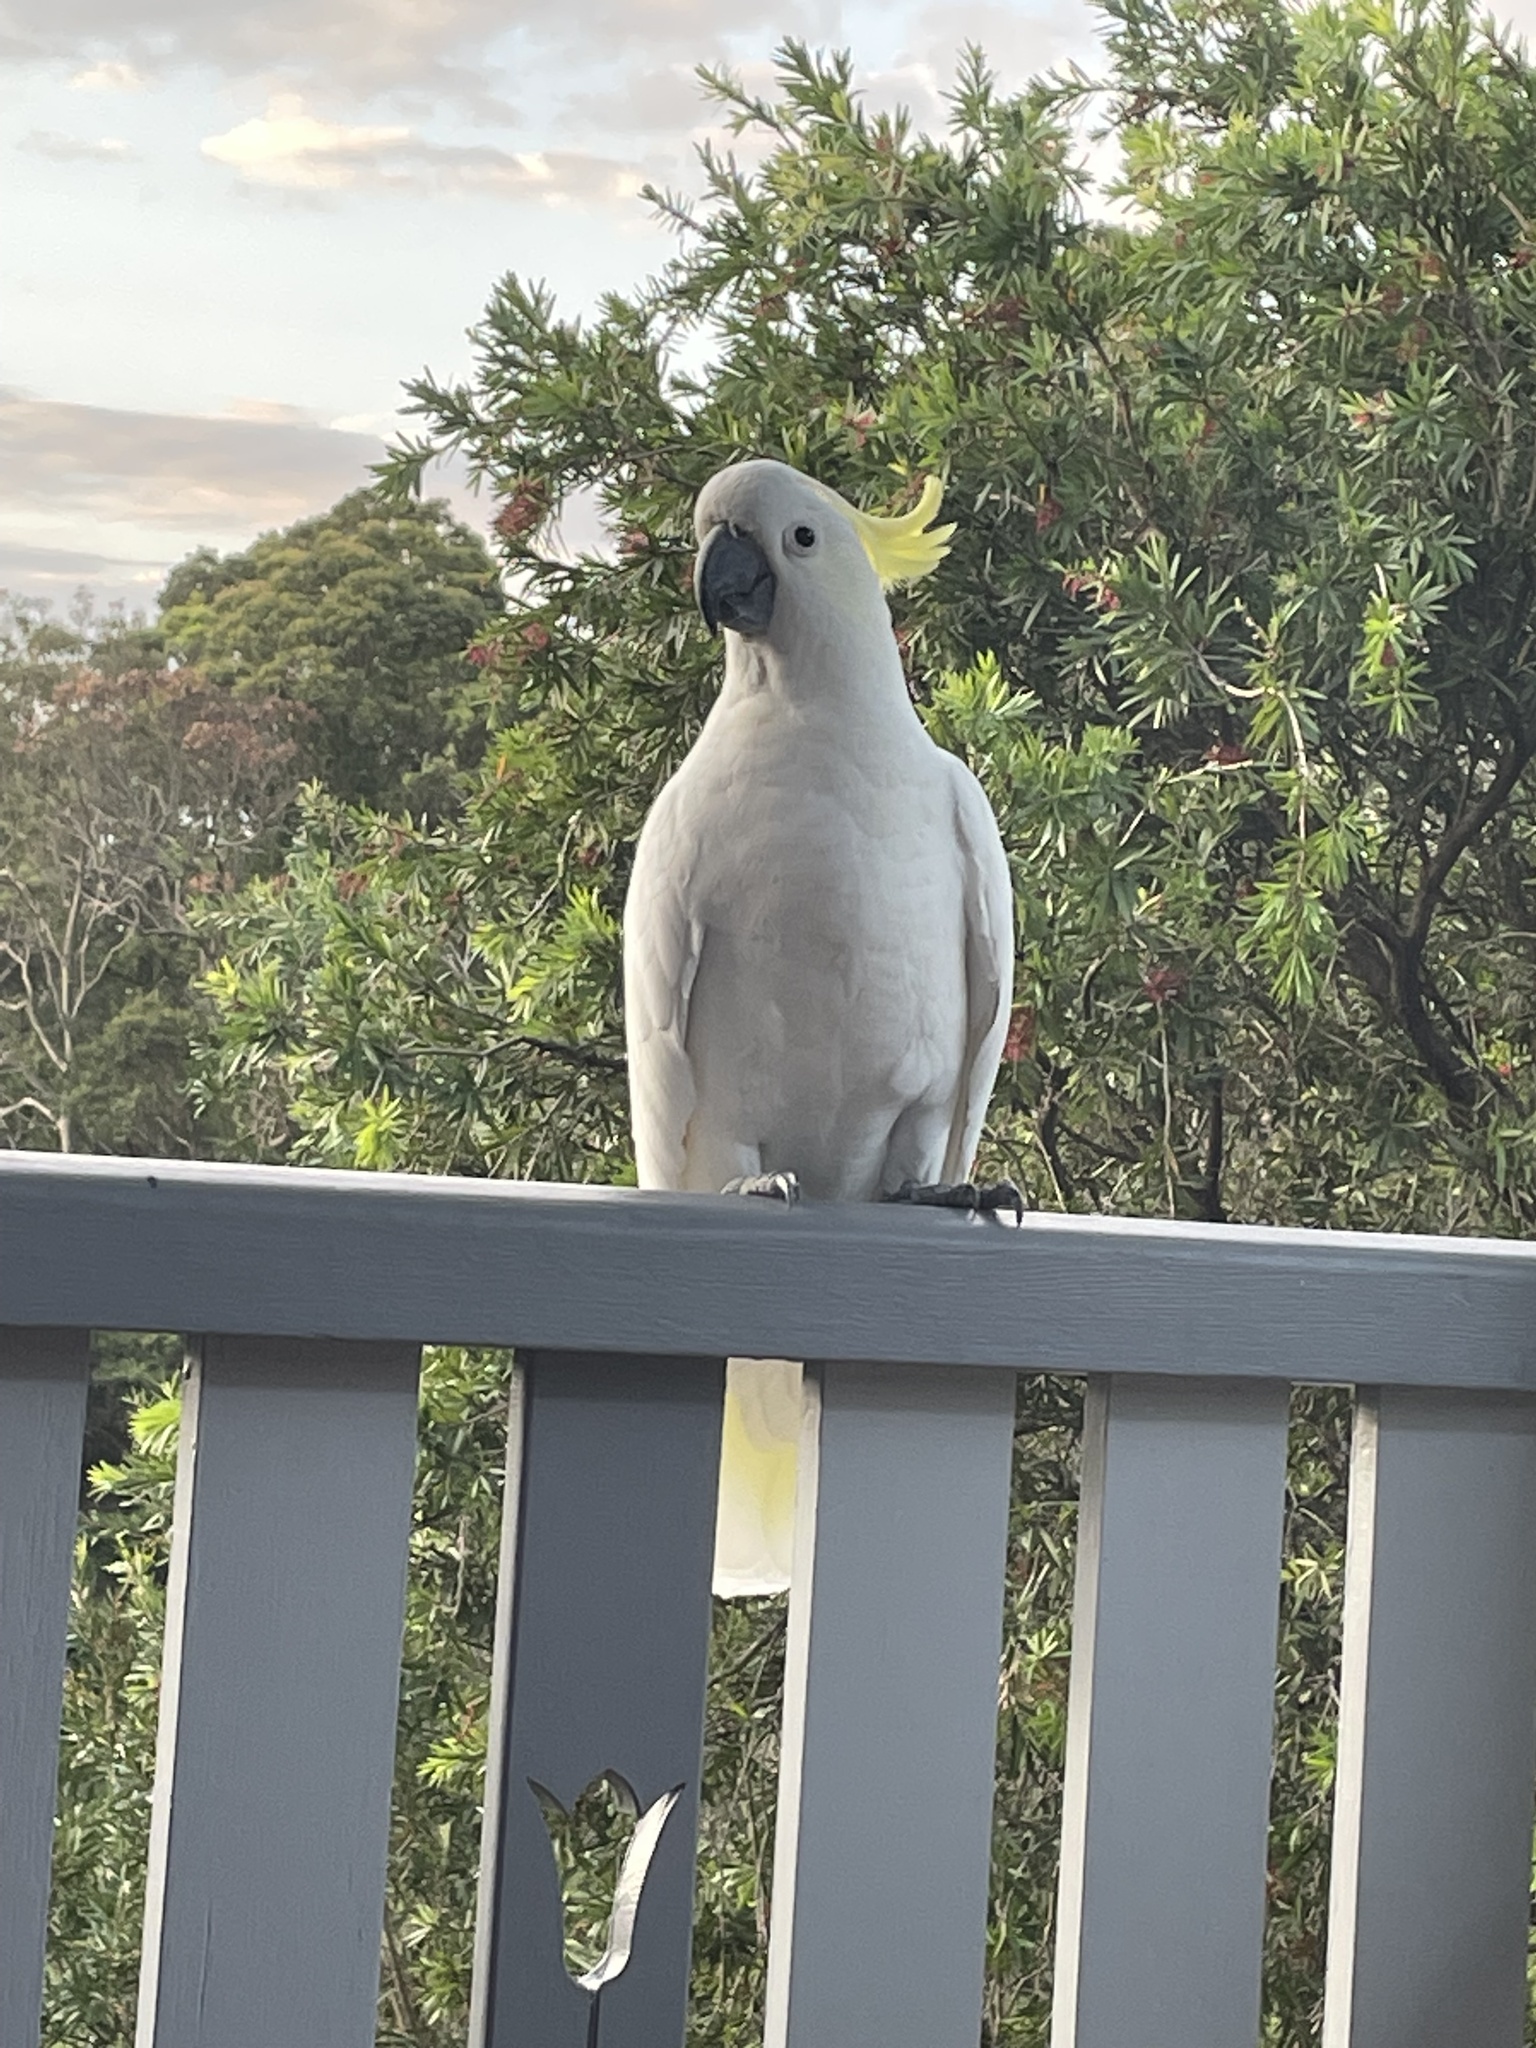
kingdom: Animalia
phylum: Chordata
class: Aves
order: Psittaciformes
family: Psittacidae
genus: Cacatua
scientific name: Cacatua galerita
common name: Sulphur-crested cockatoo
